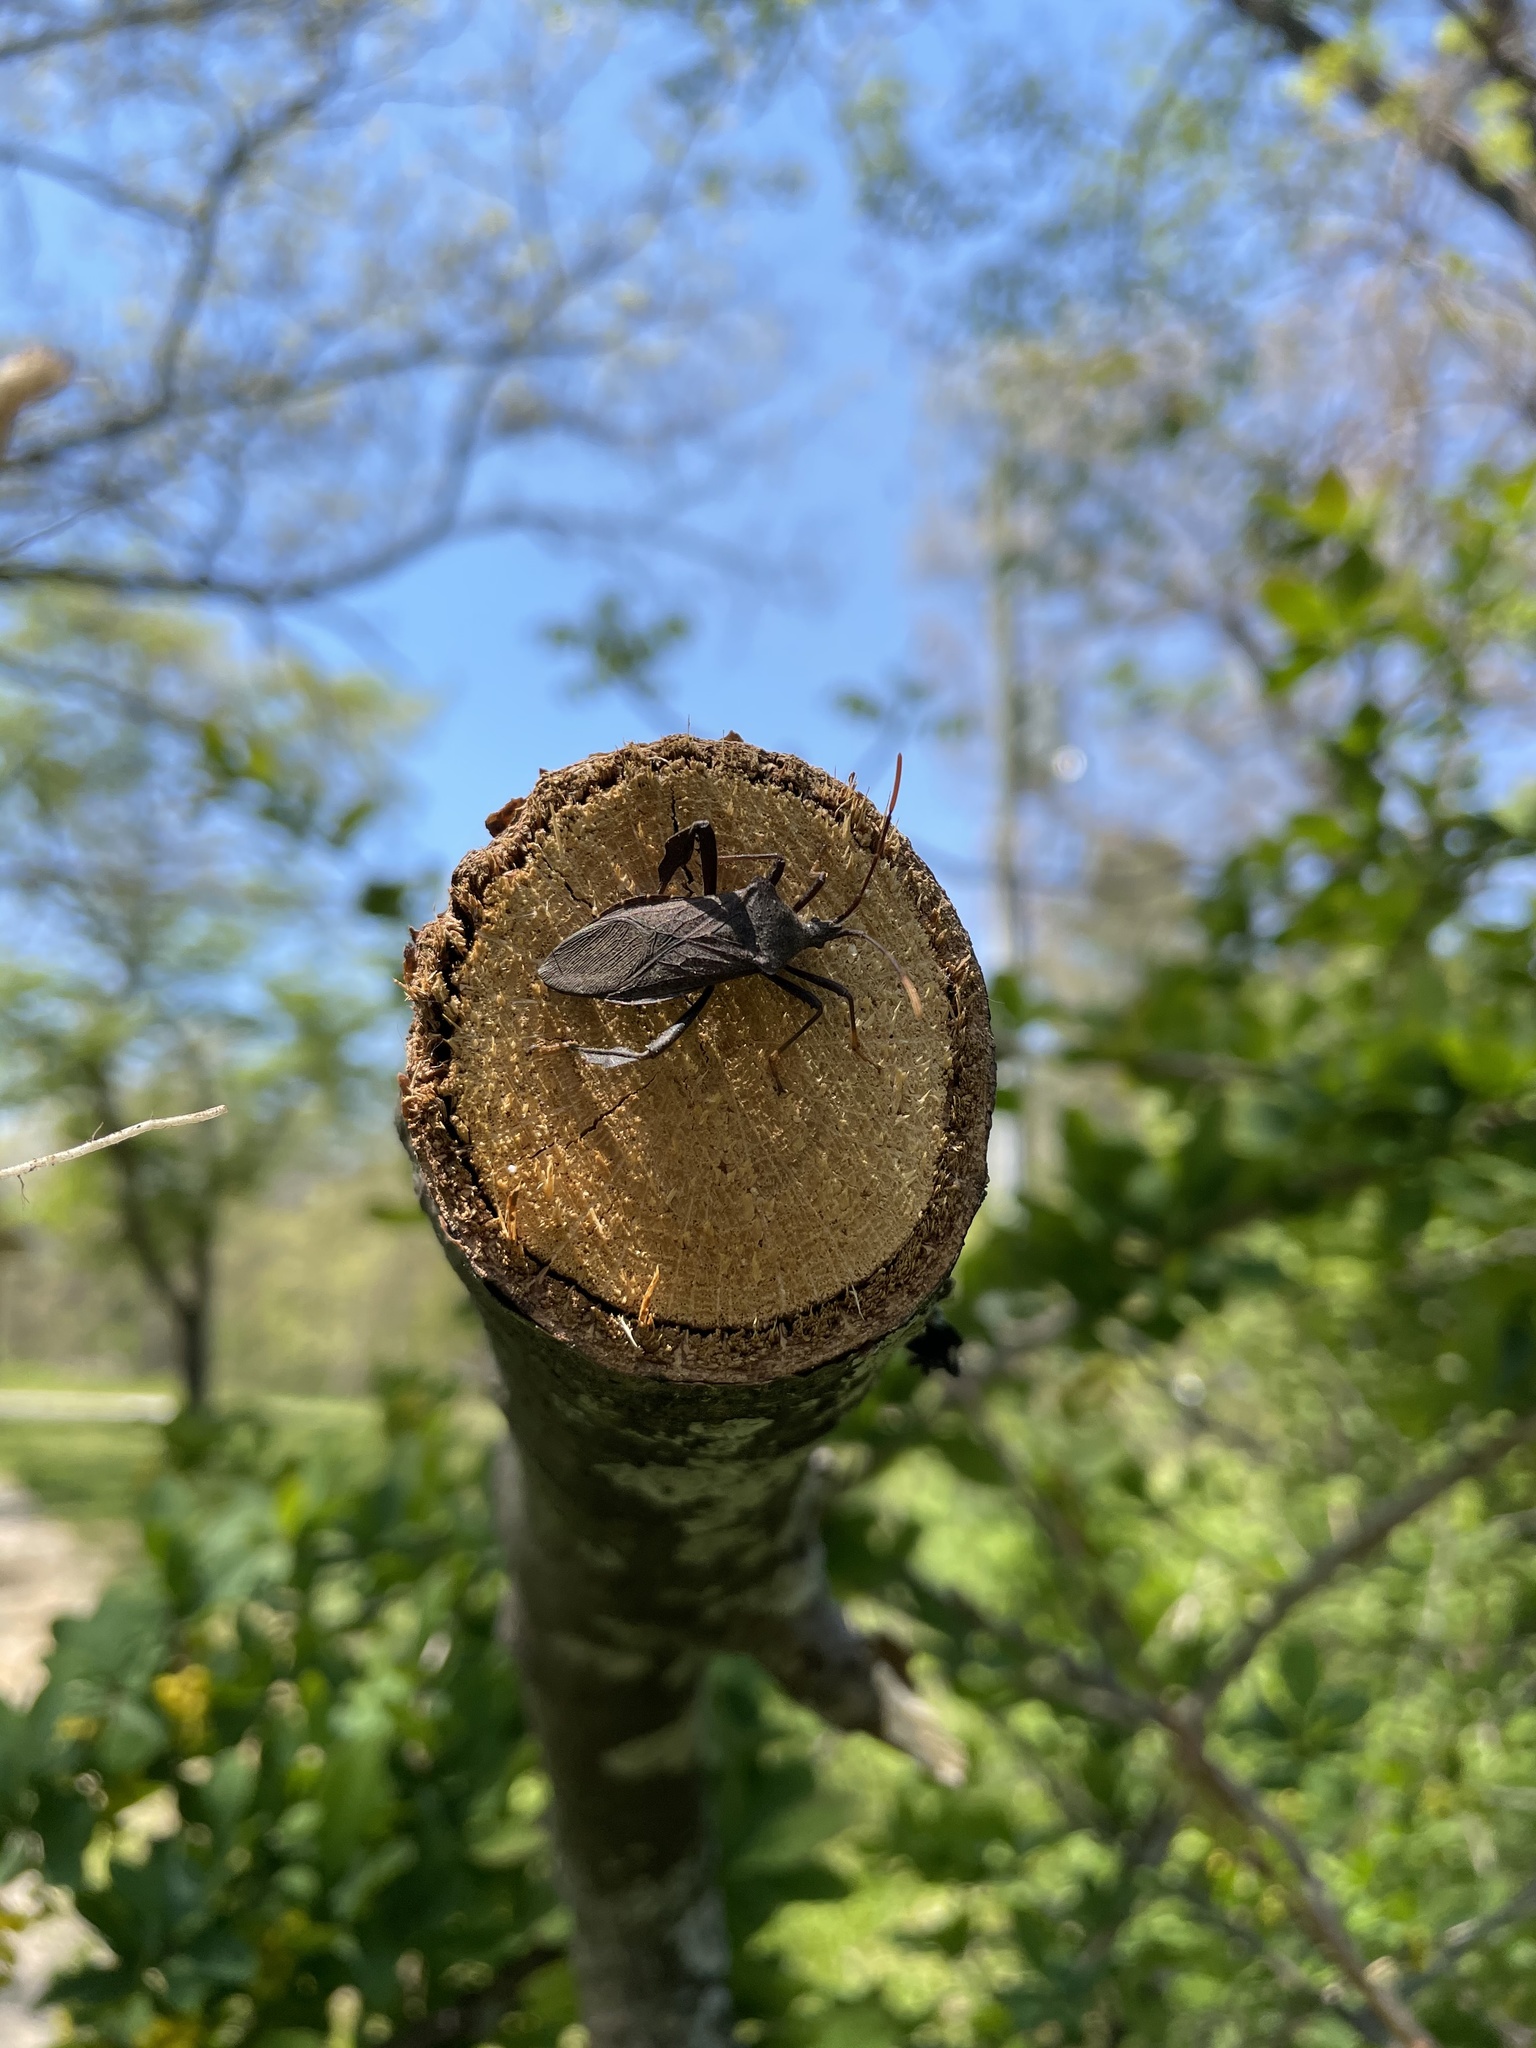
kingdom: Animalia
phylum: Arthropoda
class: Insecta
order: Hemiptera
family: Coreidae
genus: Acanthocephala
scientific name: Acanthocephala terminalis
